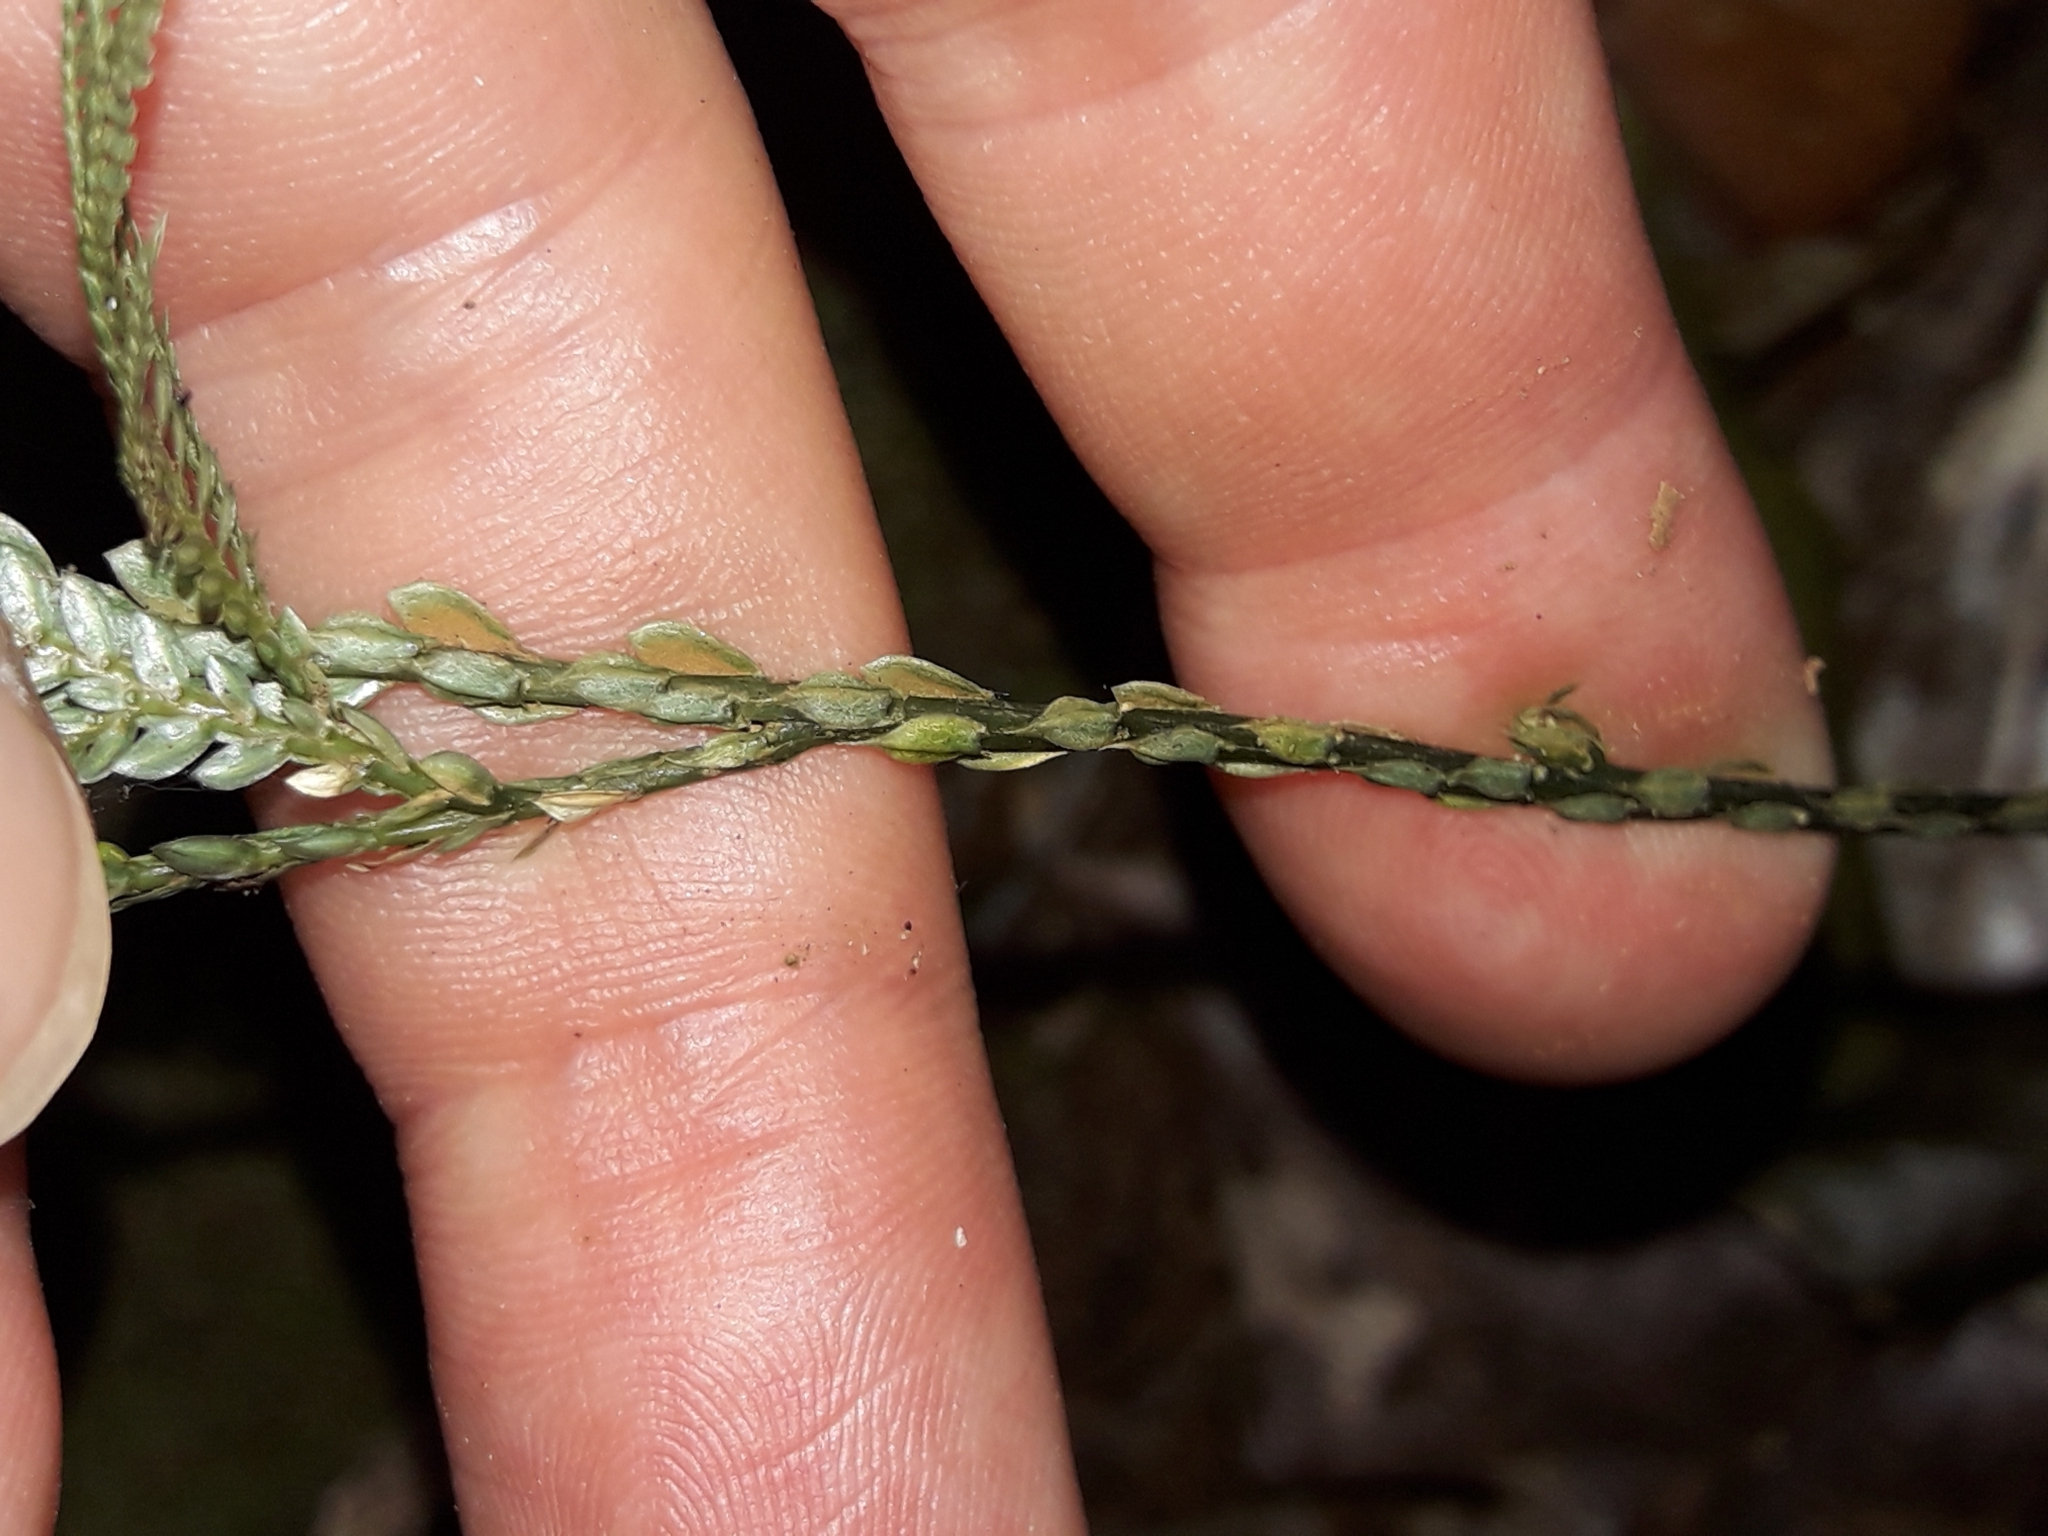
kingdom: Plantae
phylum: Tracheophyta
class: Lycopodiopsida
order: Selaginellales
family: Selaginellaceae
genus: Selaginella
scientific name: Selaginella firmuloides
